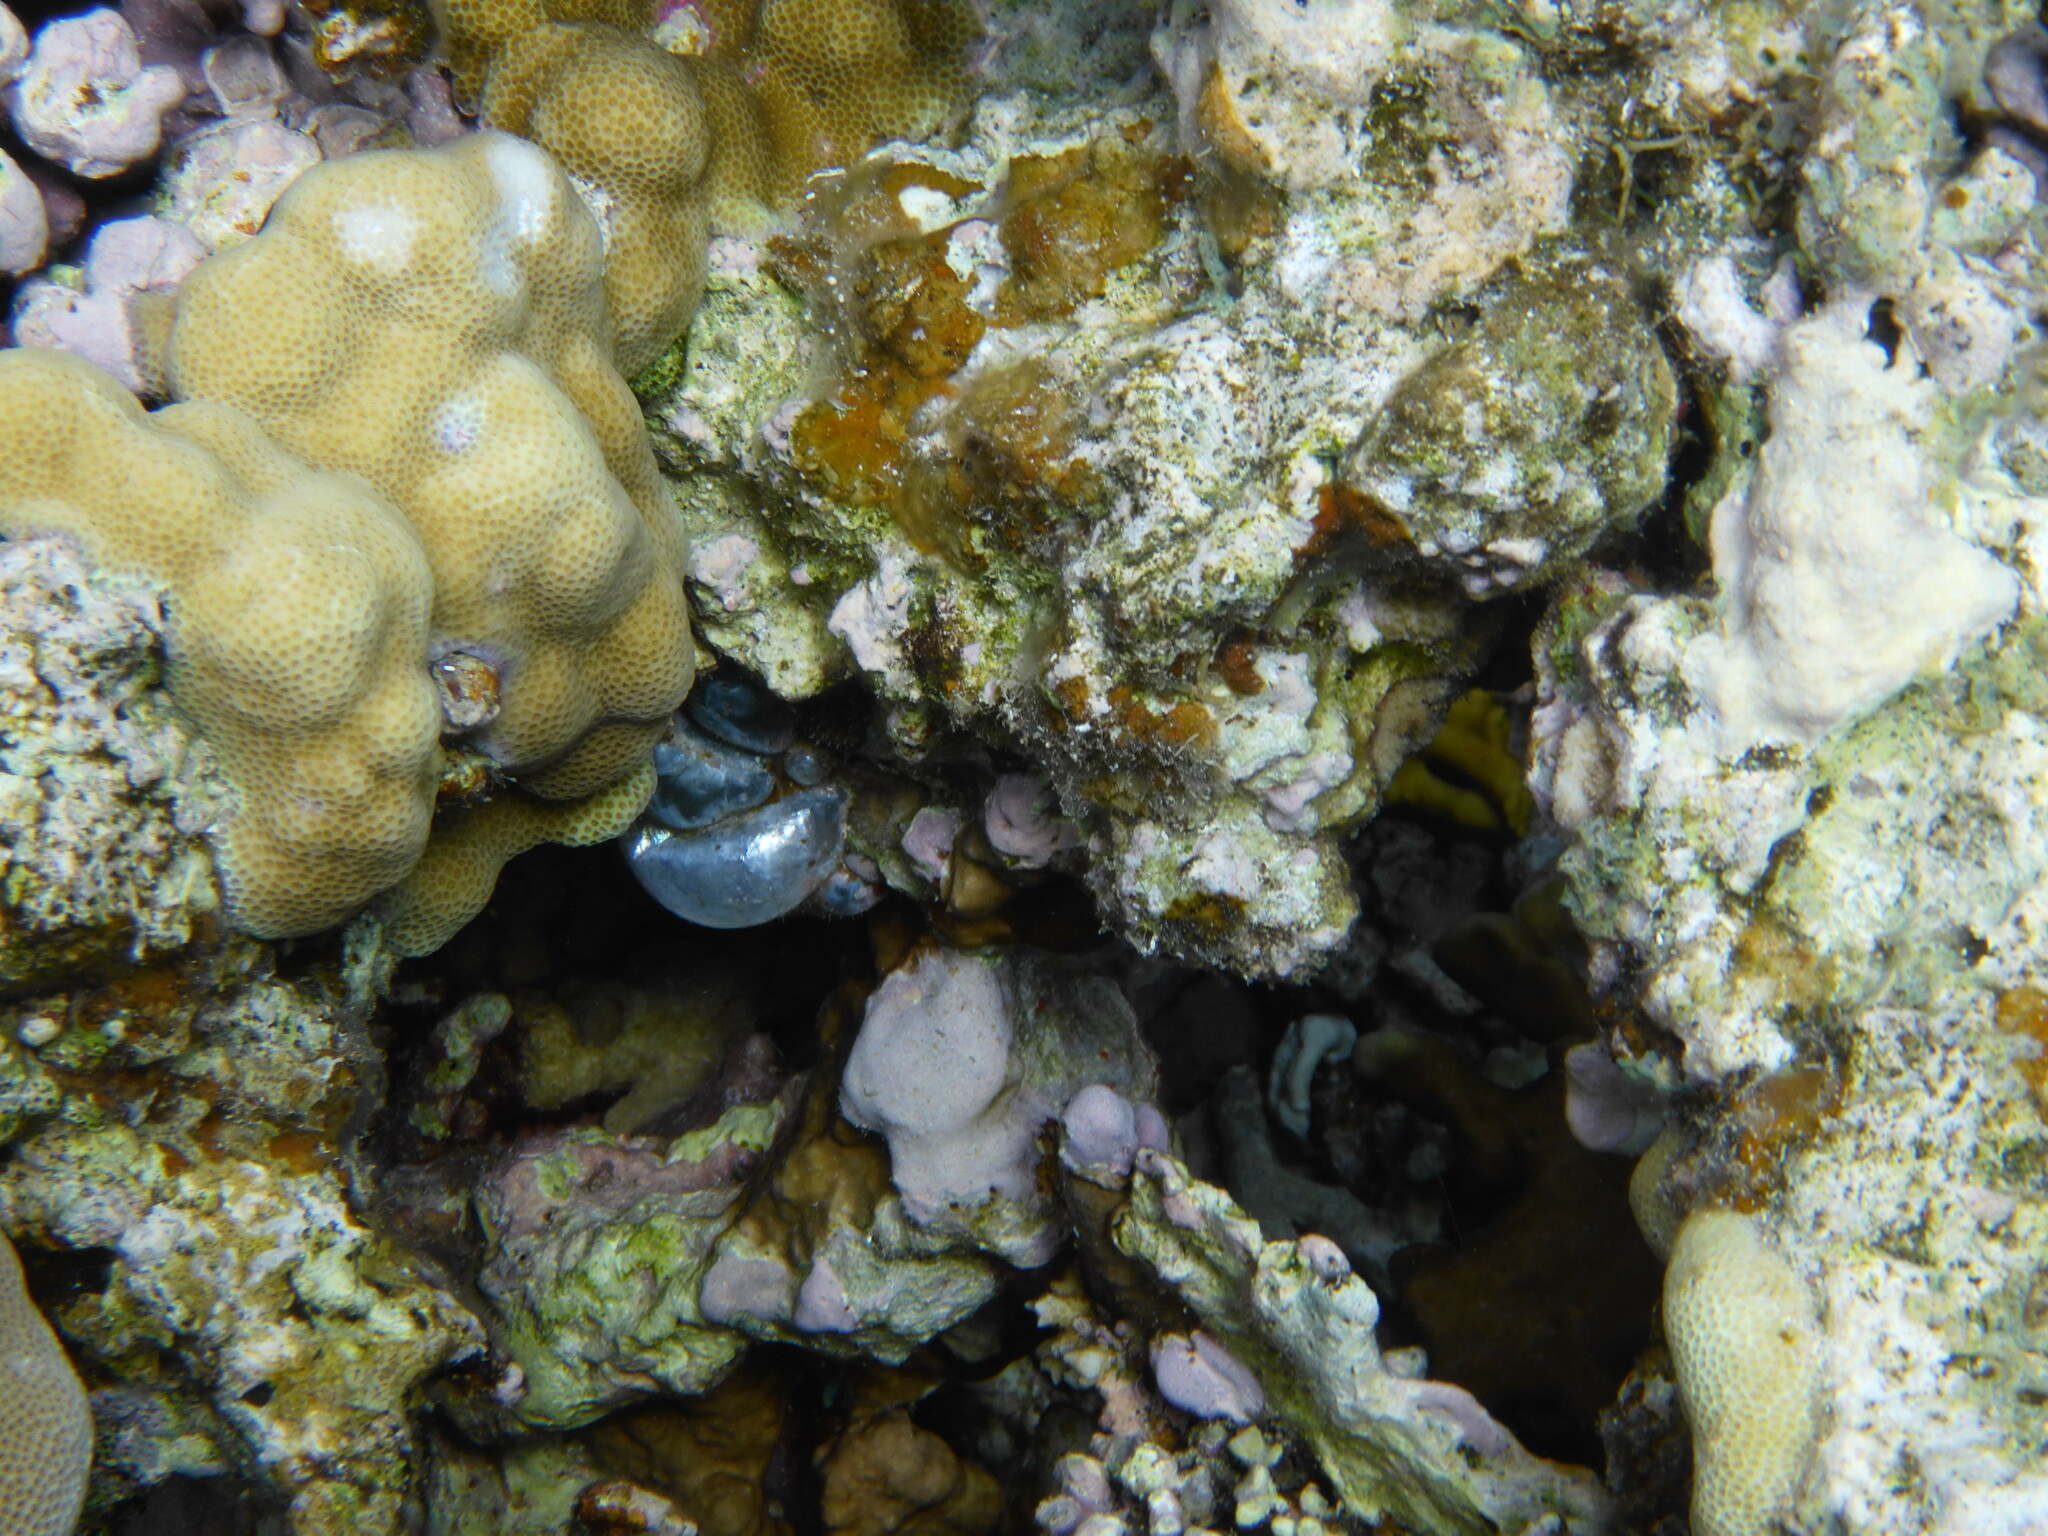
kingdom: Plantae
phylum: Chlorophyta
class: Ulvophyceae
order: Siphonocladales
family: Valoniaceae
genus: Valonia
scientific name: Valonia ventricosa
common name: Sea pearl
